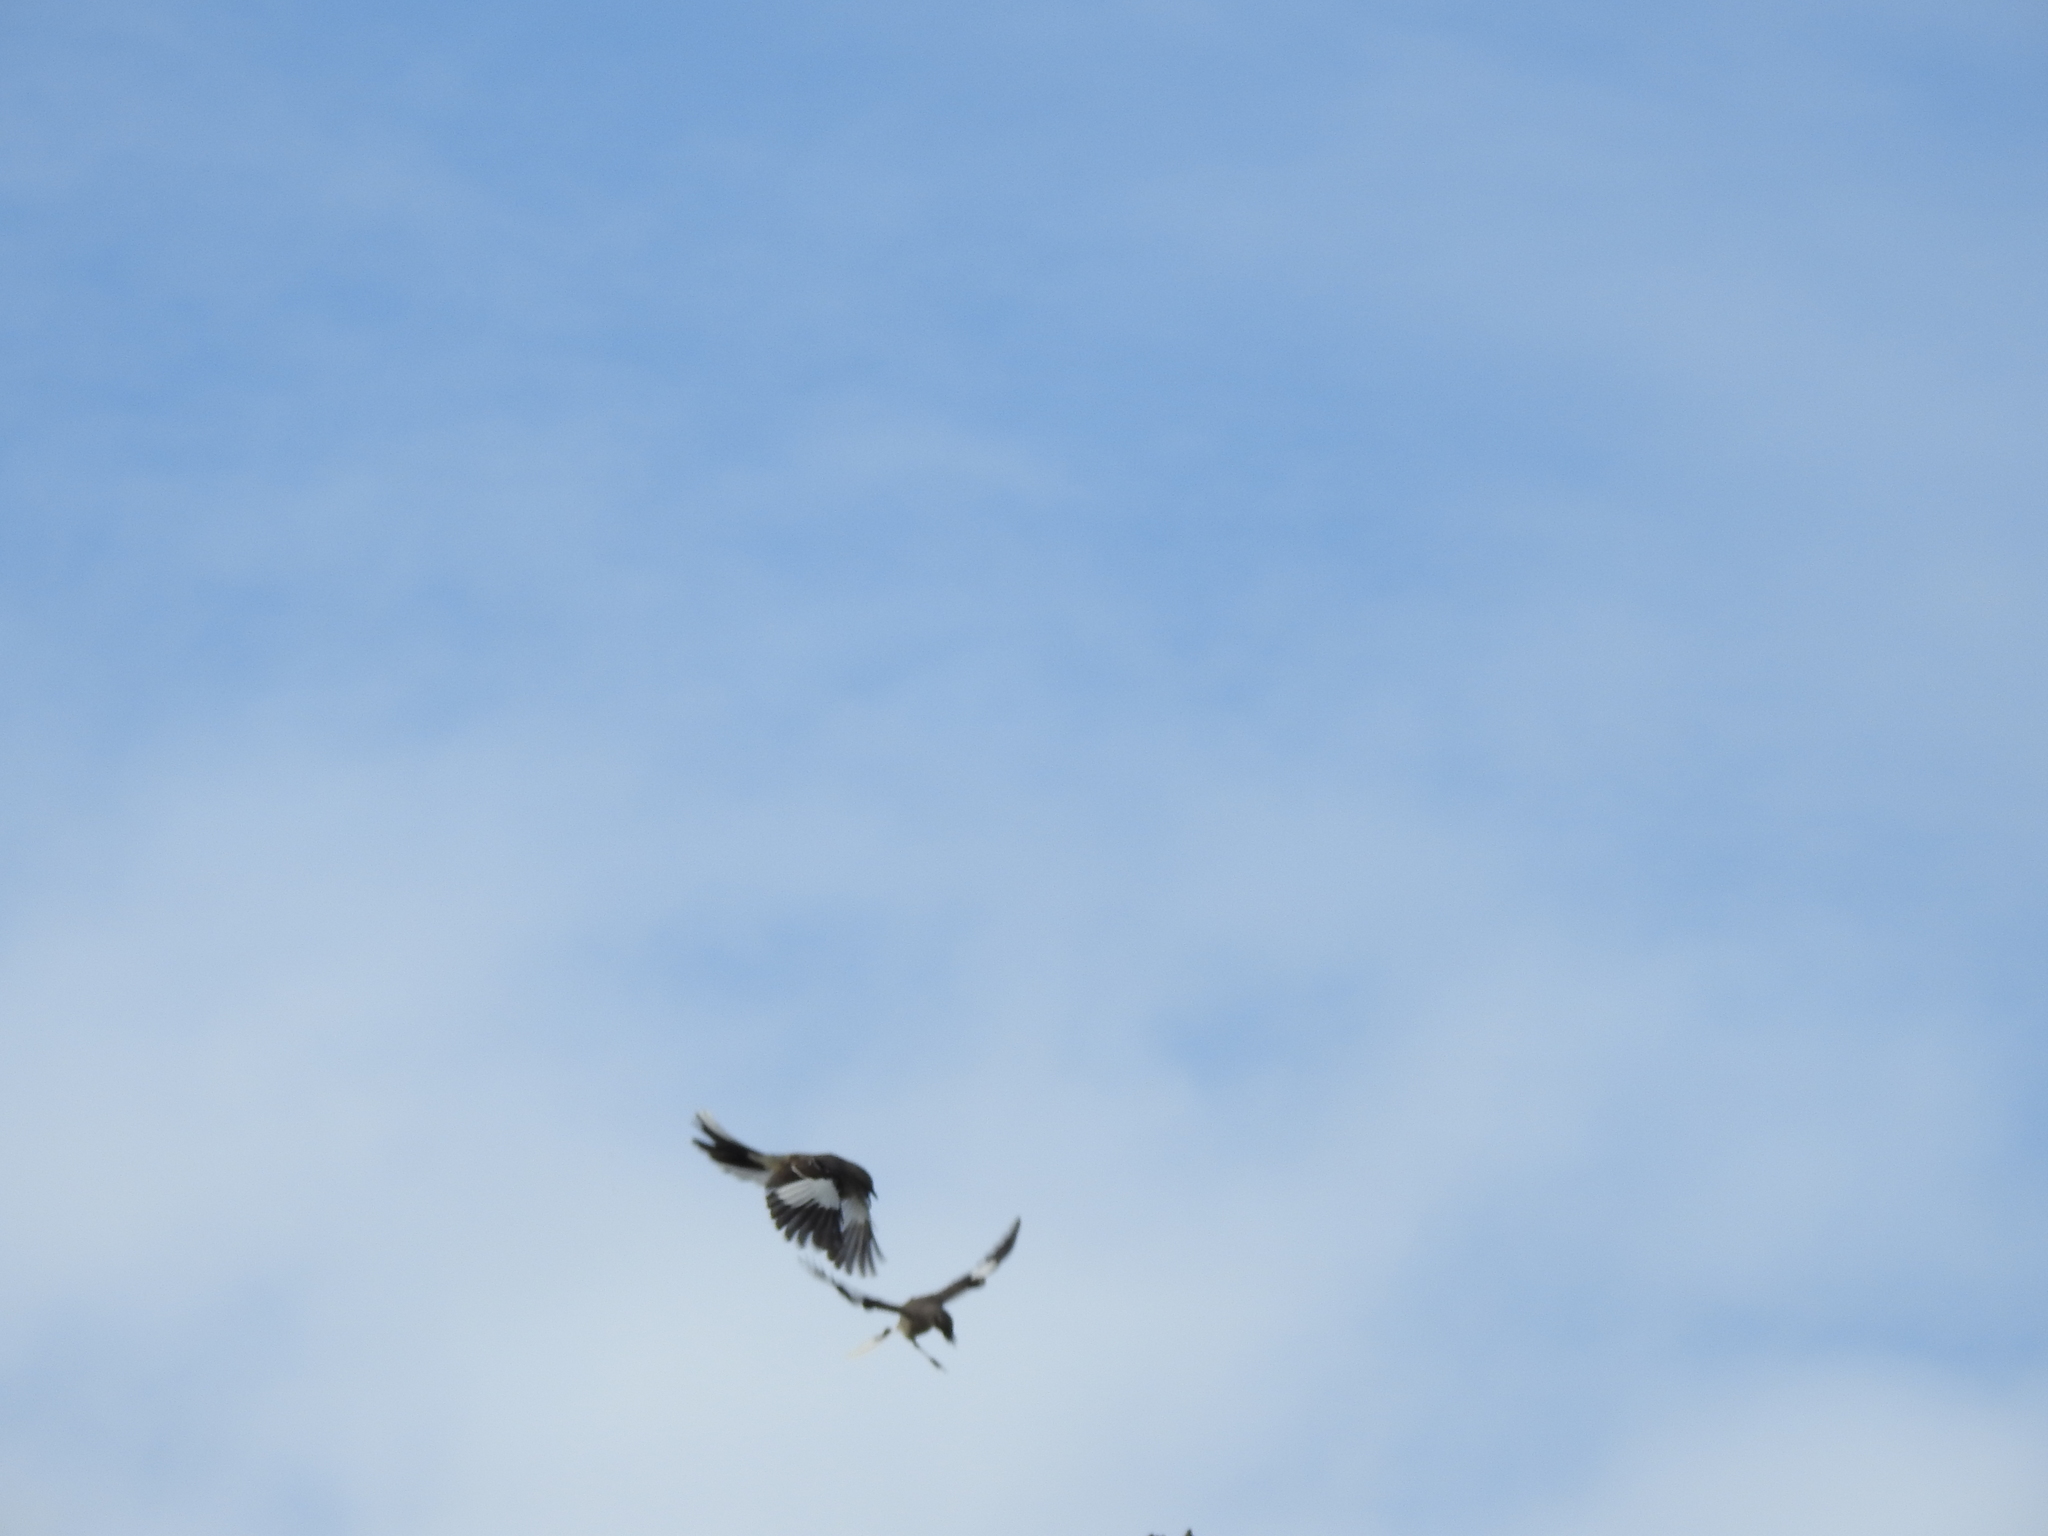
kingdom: Animalia
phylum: Chordata
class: Aves
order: Passeriformes
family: Mimidae
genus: Mimus
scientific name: Mimus polyglottos
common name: Northern mockingbird
